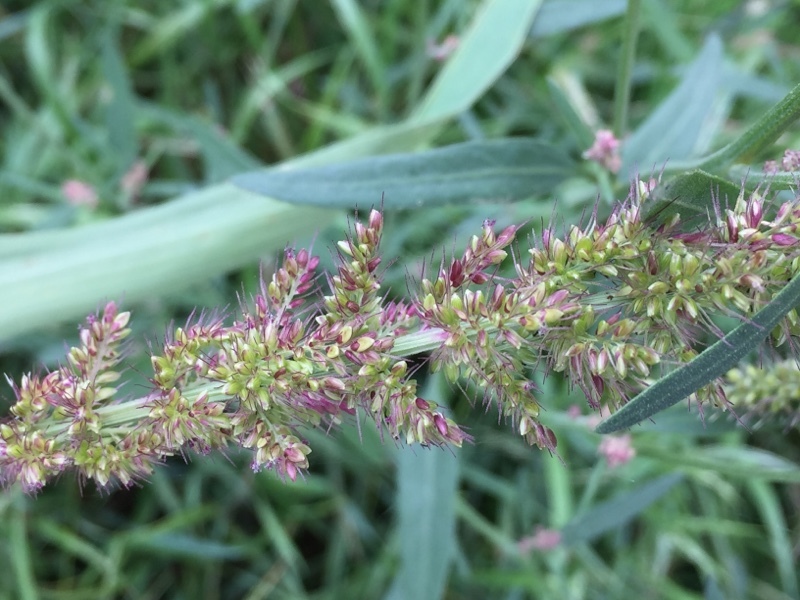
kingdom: Plantae
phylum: Tracheophyta
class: Liliopsida
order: Poales
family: Poaceae
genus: Setaria
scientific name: Setaria verticillata
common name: Hooked bristlegrass
